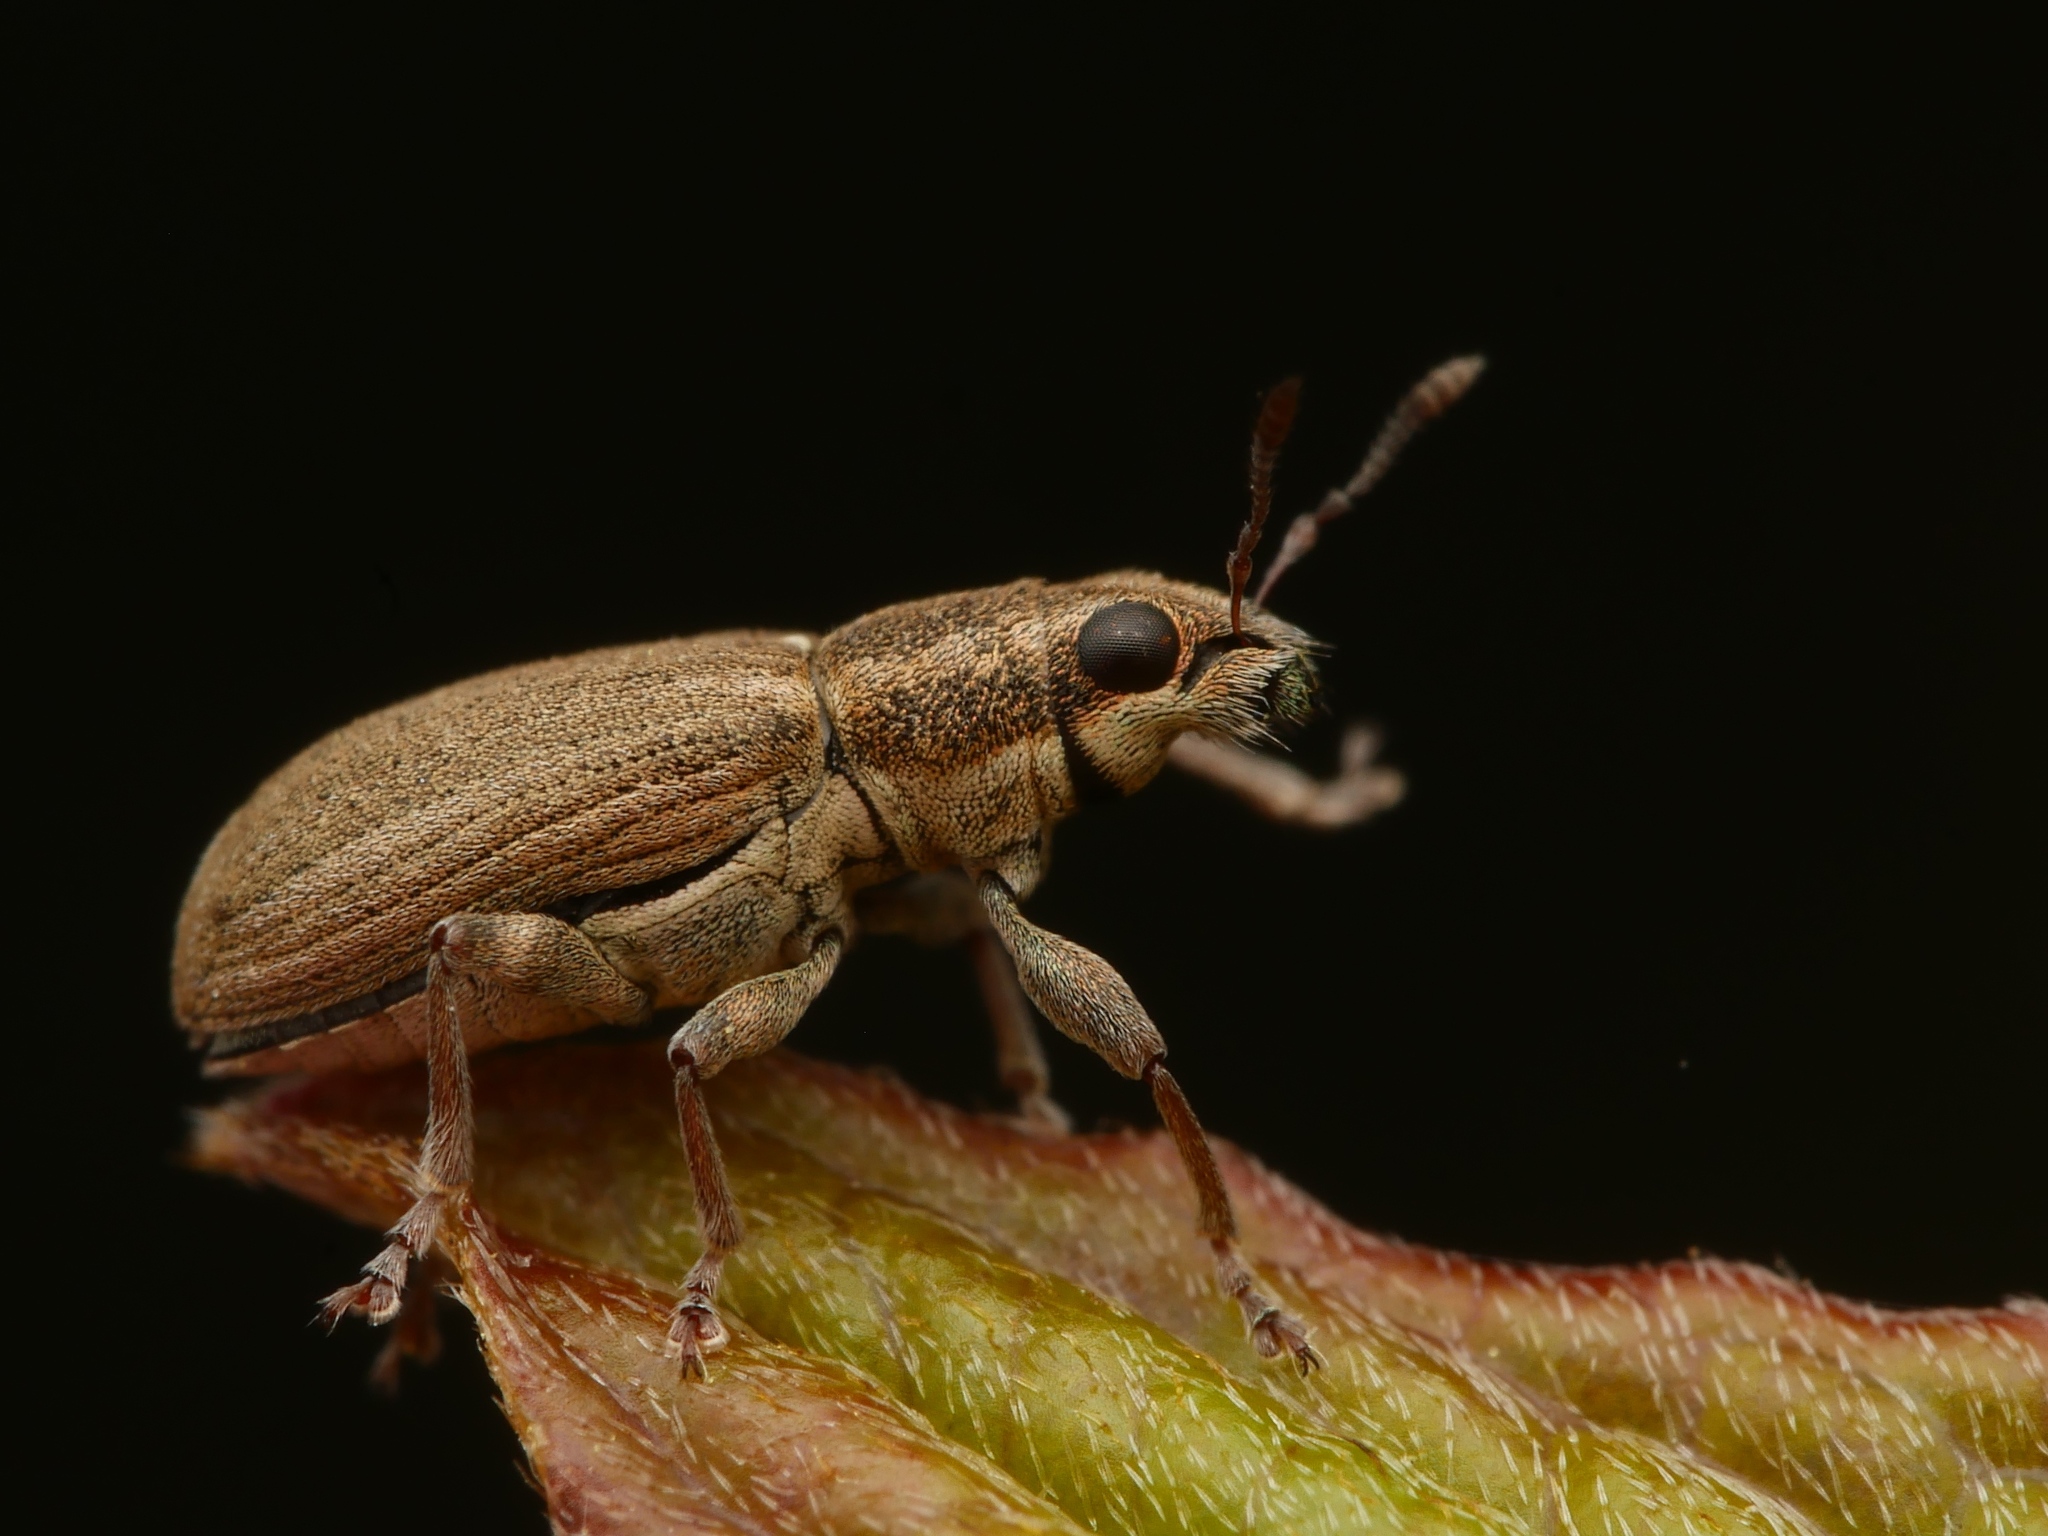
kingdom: Animalia
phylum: Arthropoda
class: Insecta
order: Coleoptera
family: Curculionidae
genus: Sitona
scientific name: Sitona lineatus
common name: Weevil
